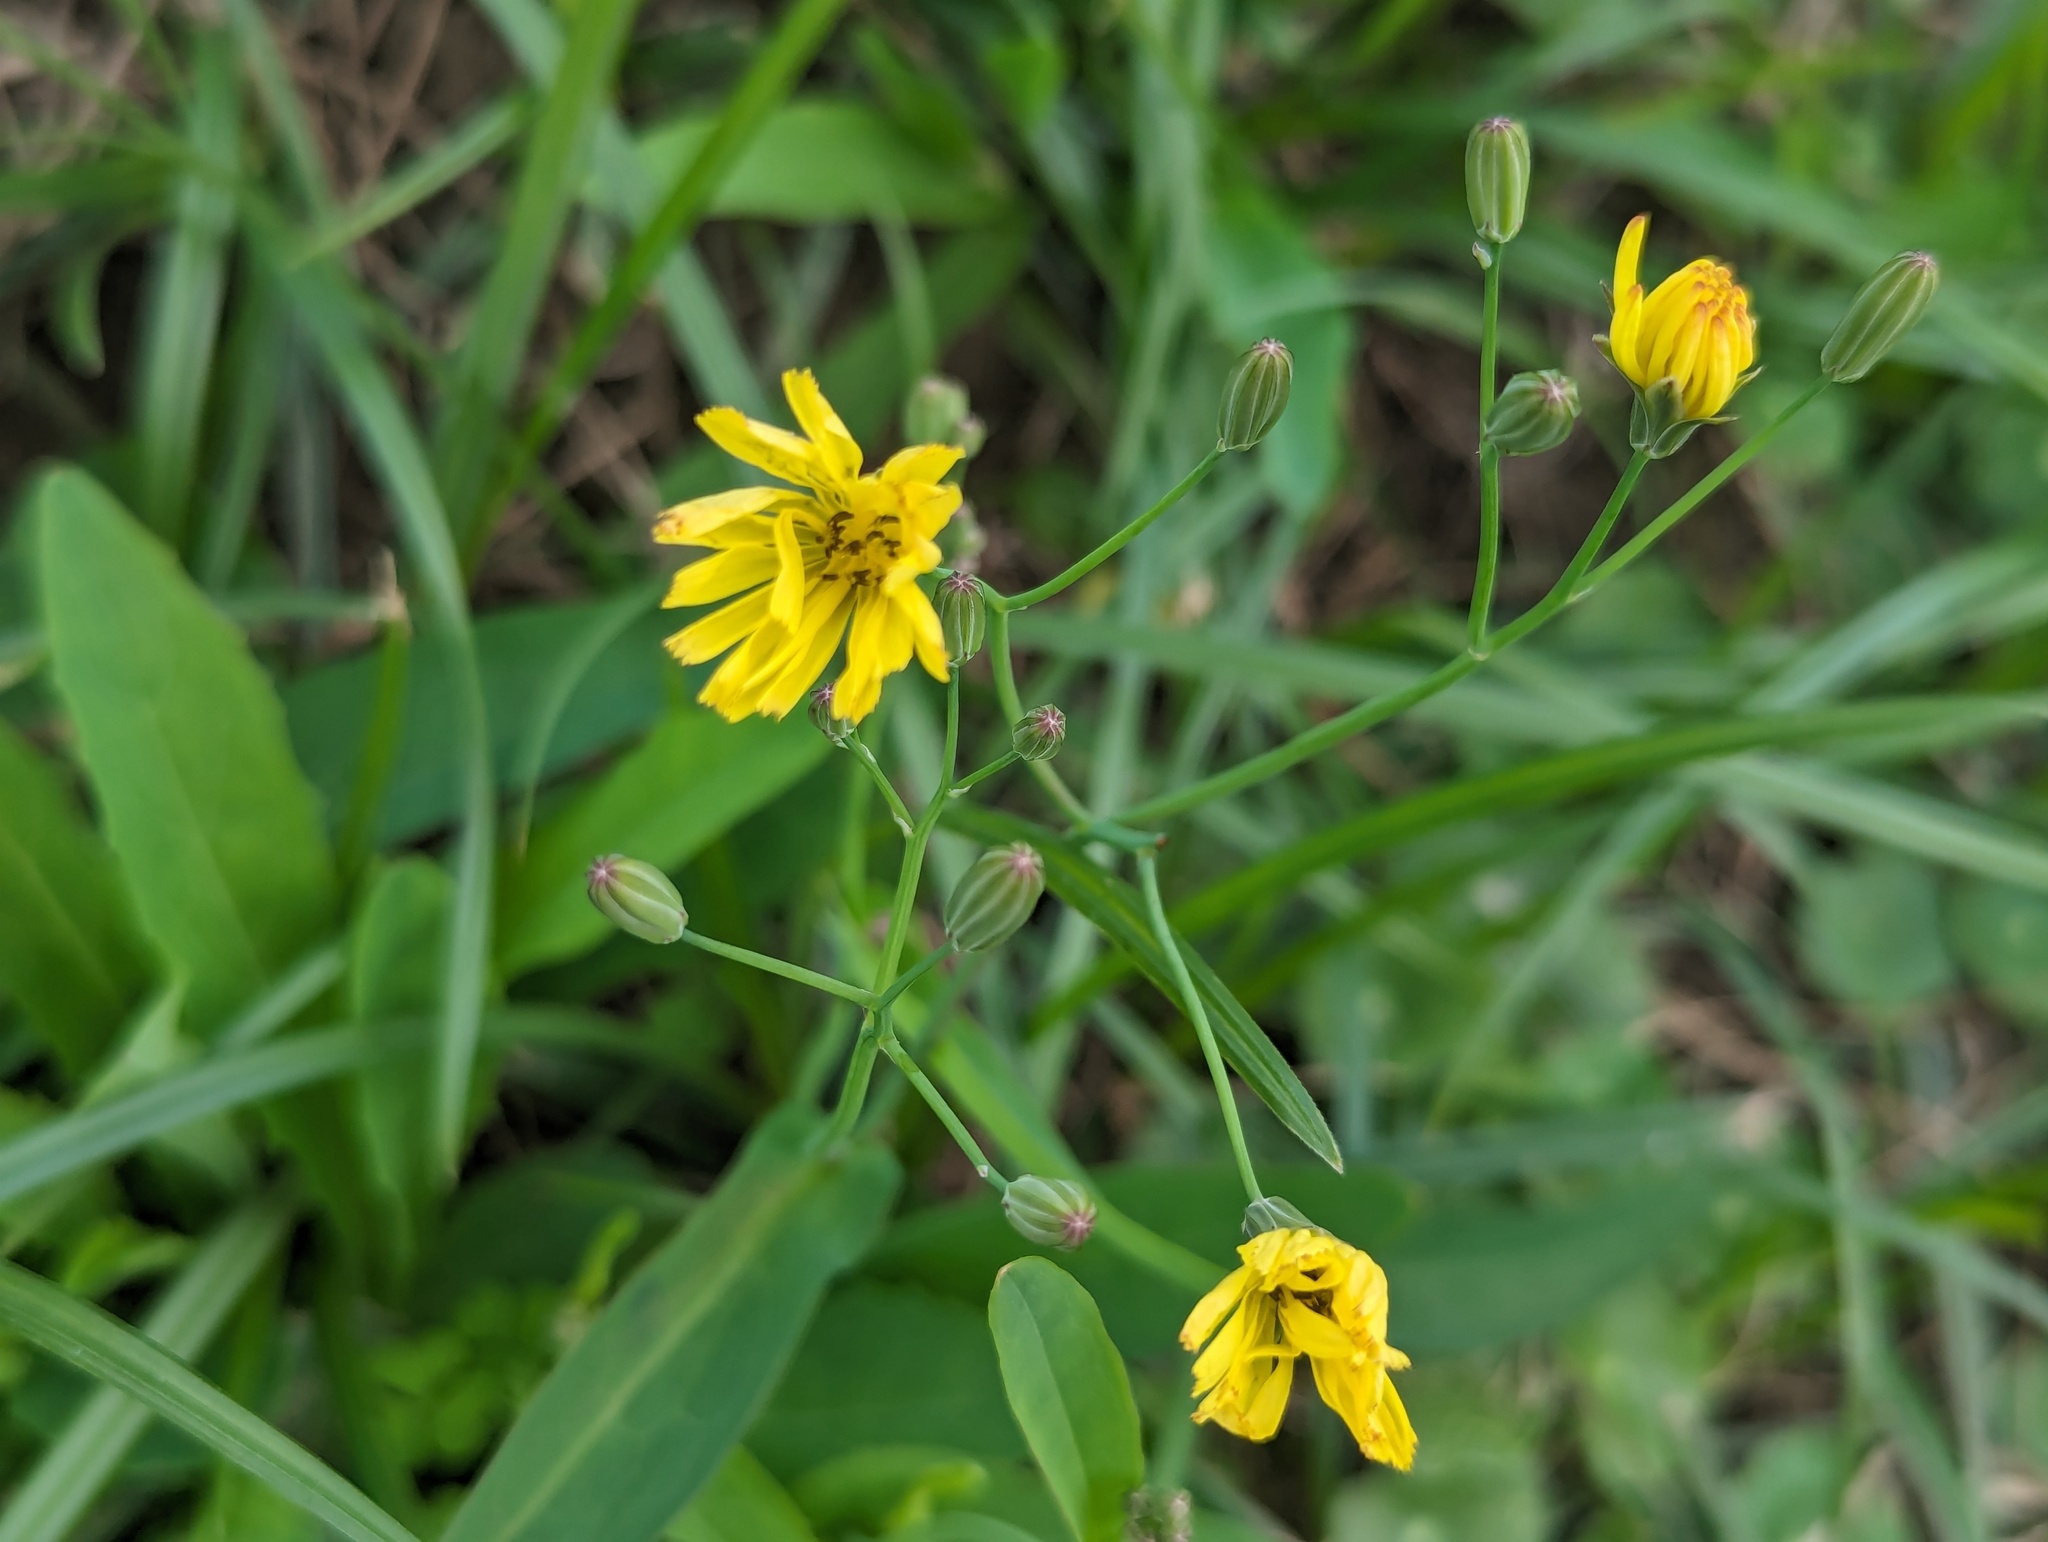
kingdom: Plantae
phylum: Tracheophyta
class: Magnoliopsida
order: Asterales
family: Asteraceae
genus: Ixeris
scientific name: Ixeris chinensis
